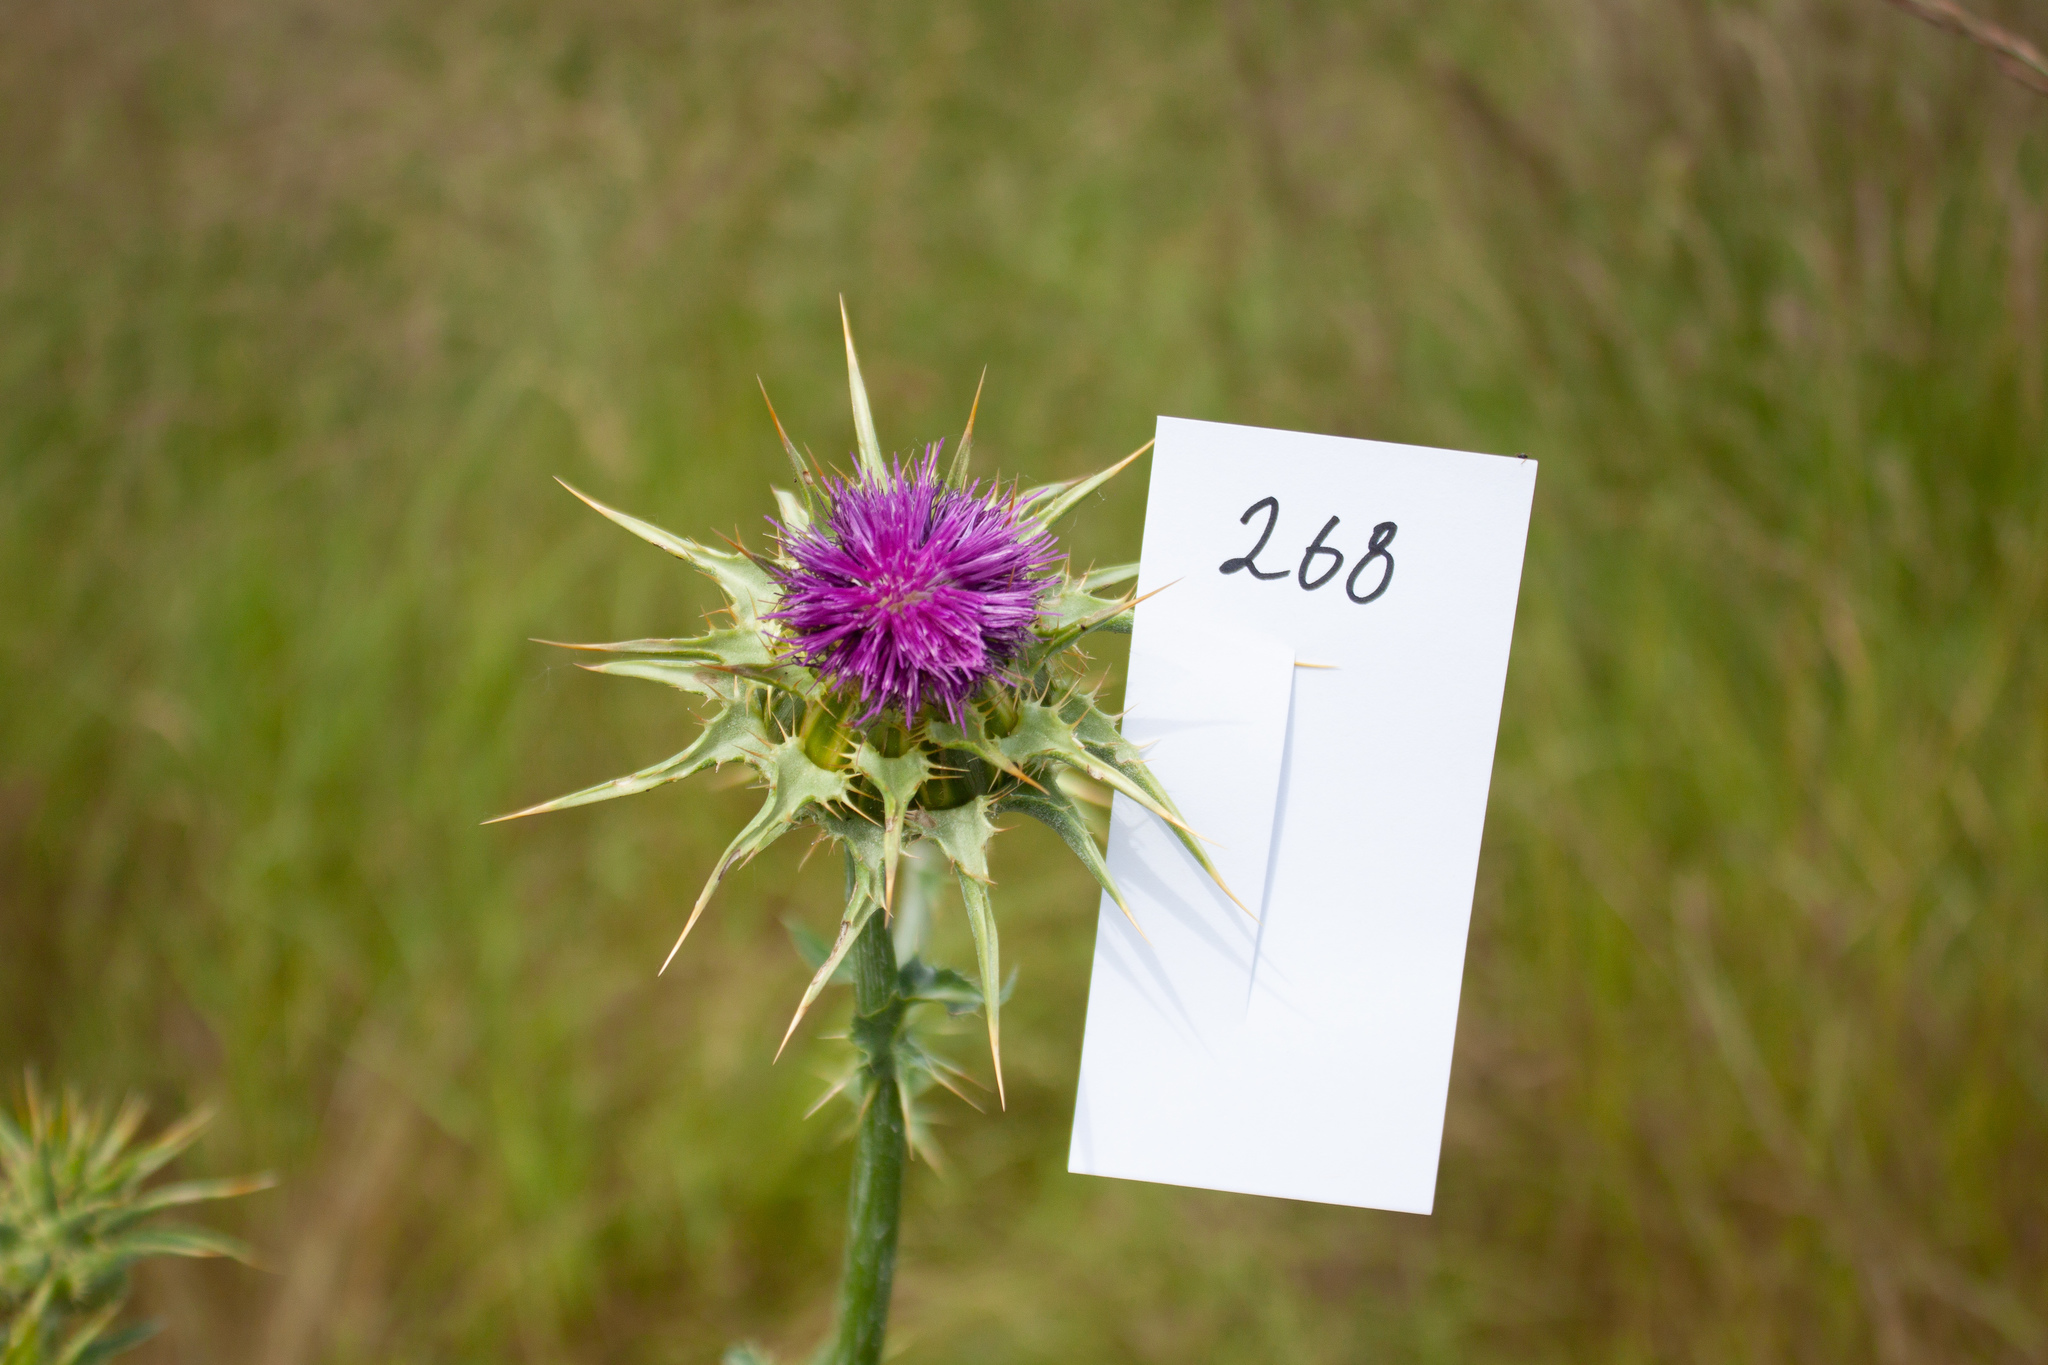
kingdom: Plantae
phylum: Tracheophyta
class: Magnoliopsida
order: Asterales
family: Asteraceae
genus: Silybum
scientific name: Silybum marianum
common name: Milk thistle
